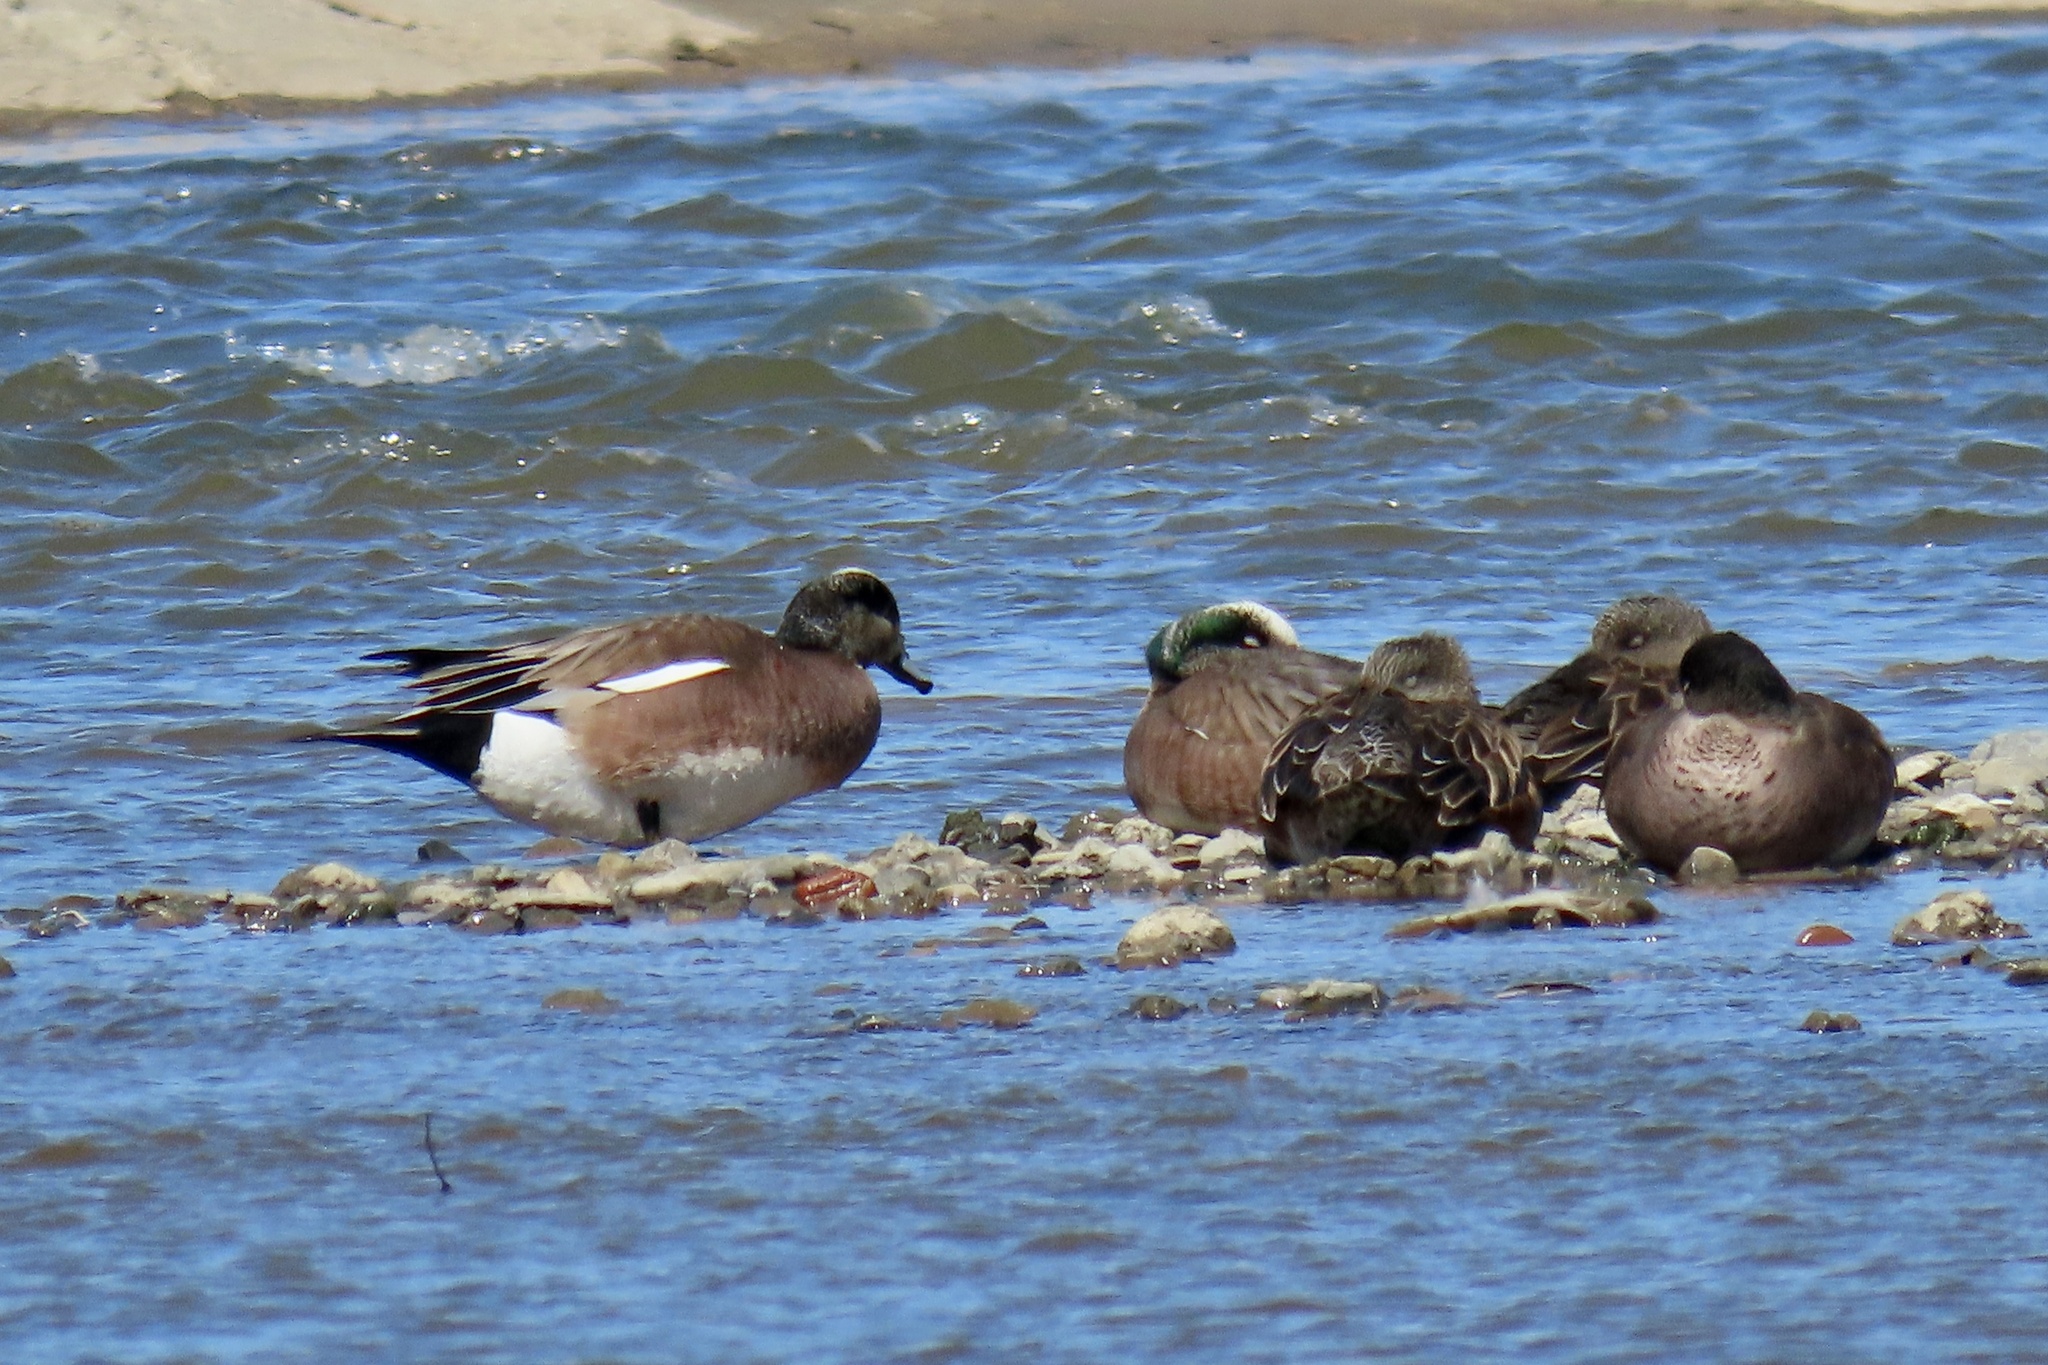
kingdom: Animalia
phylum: Chordata
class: Aves
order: Anseriformes
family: Anatidae
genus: Mareca
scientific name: Mareca americana
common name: American wigeon
